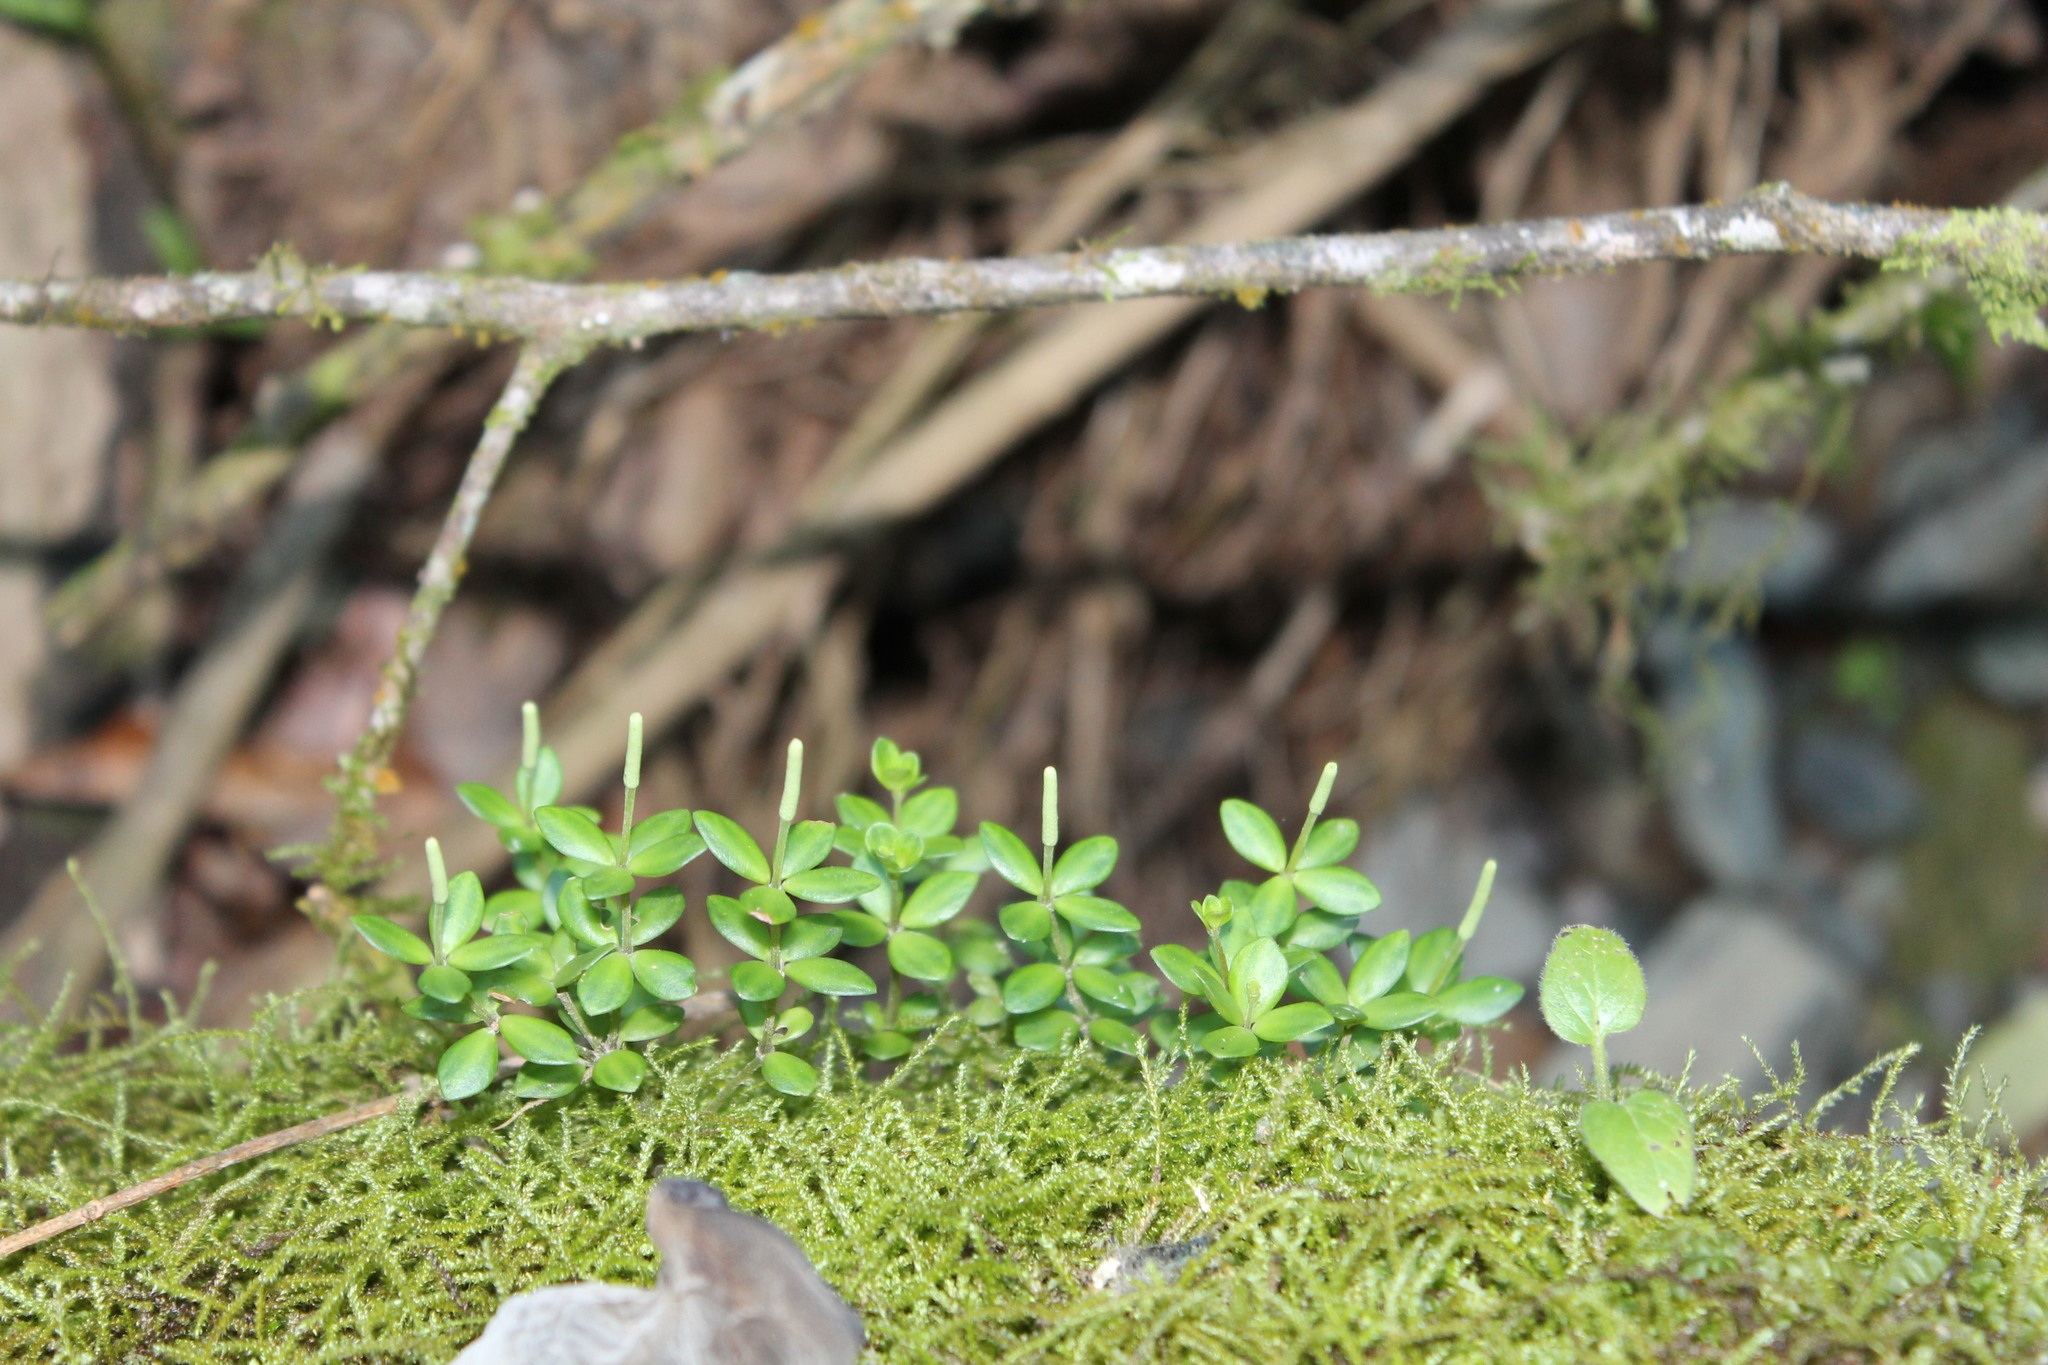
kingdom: Plantae
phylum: Tracheophyta
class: Magnoliopsida
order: Piperales
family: Piperaceae
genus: Peperomia
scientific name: Peperomia tetraphylla
